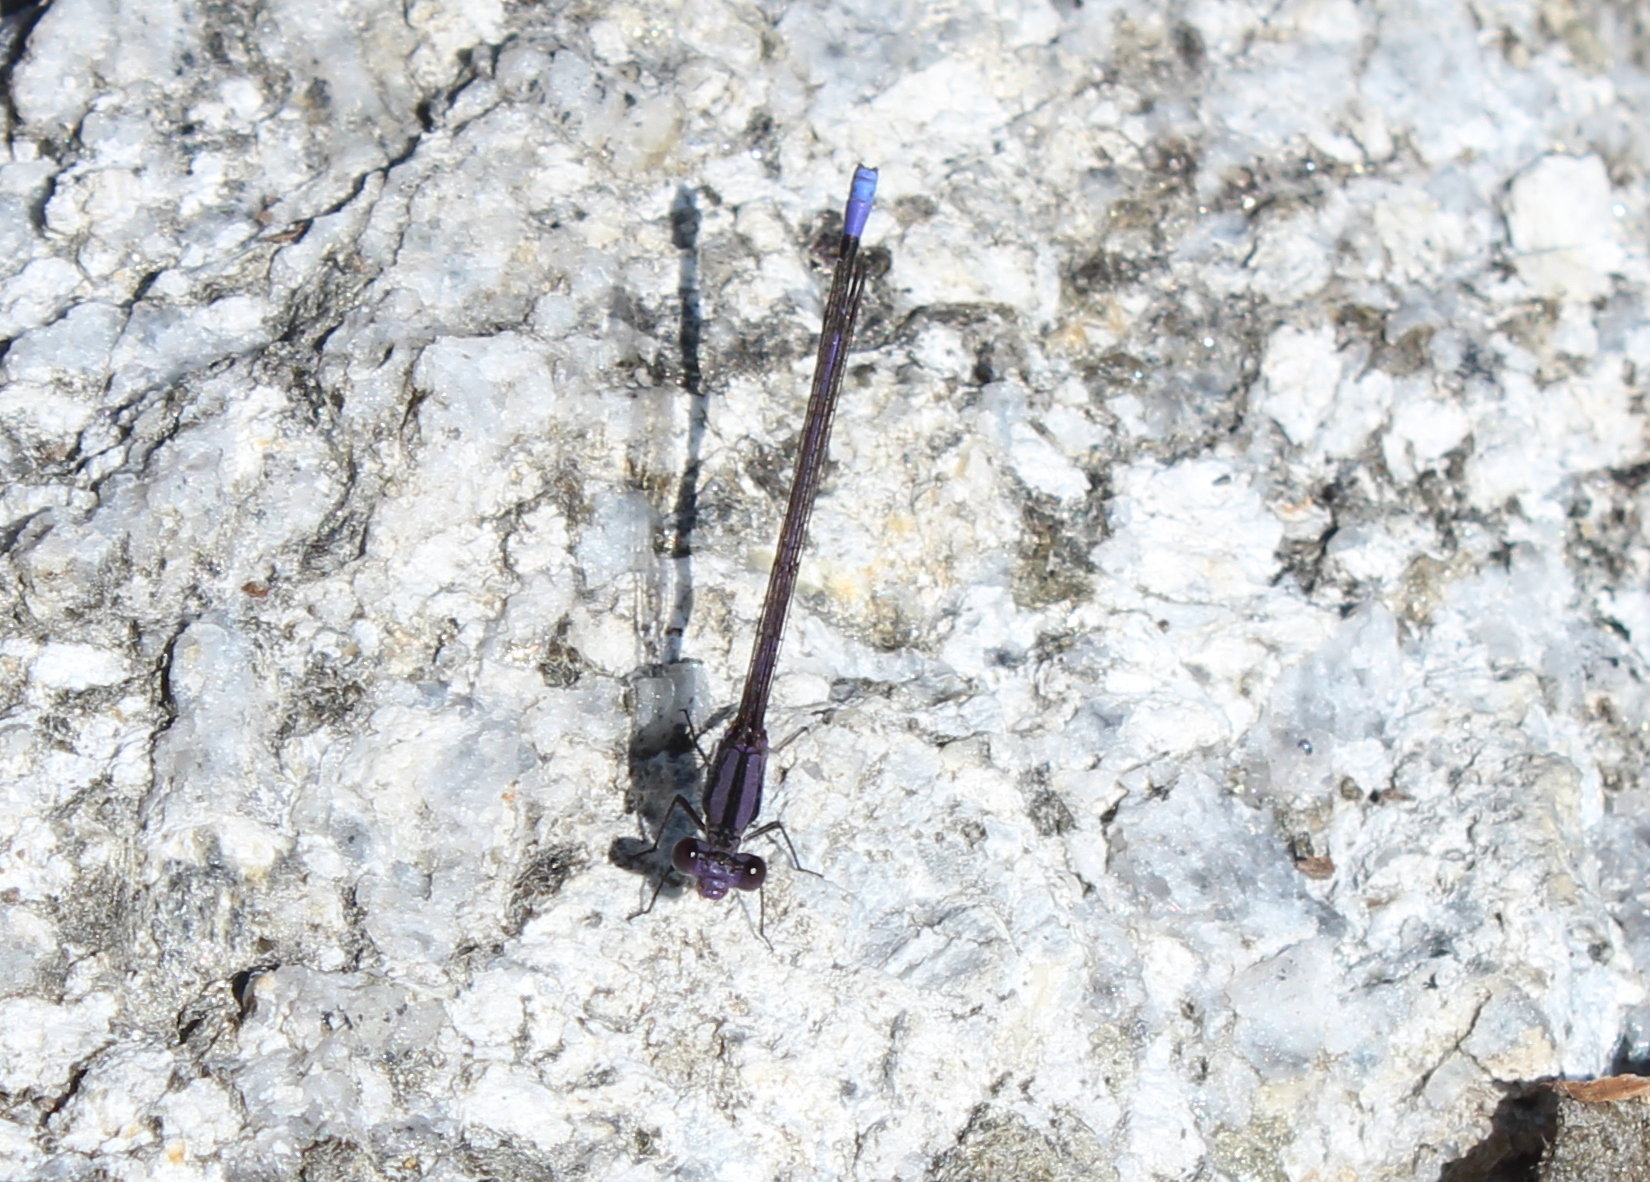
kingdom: Animalia
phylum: Arthropoda
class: Insecta
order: Odonata
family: Coenagrionidae
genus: Argia
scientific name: Argia fumipennis
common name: Variable dancer
